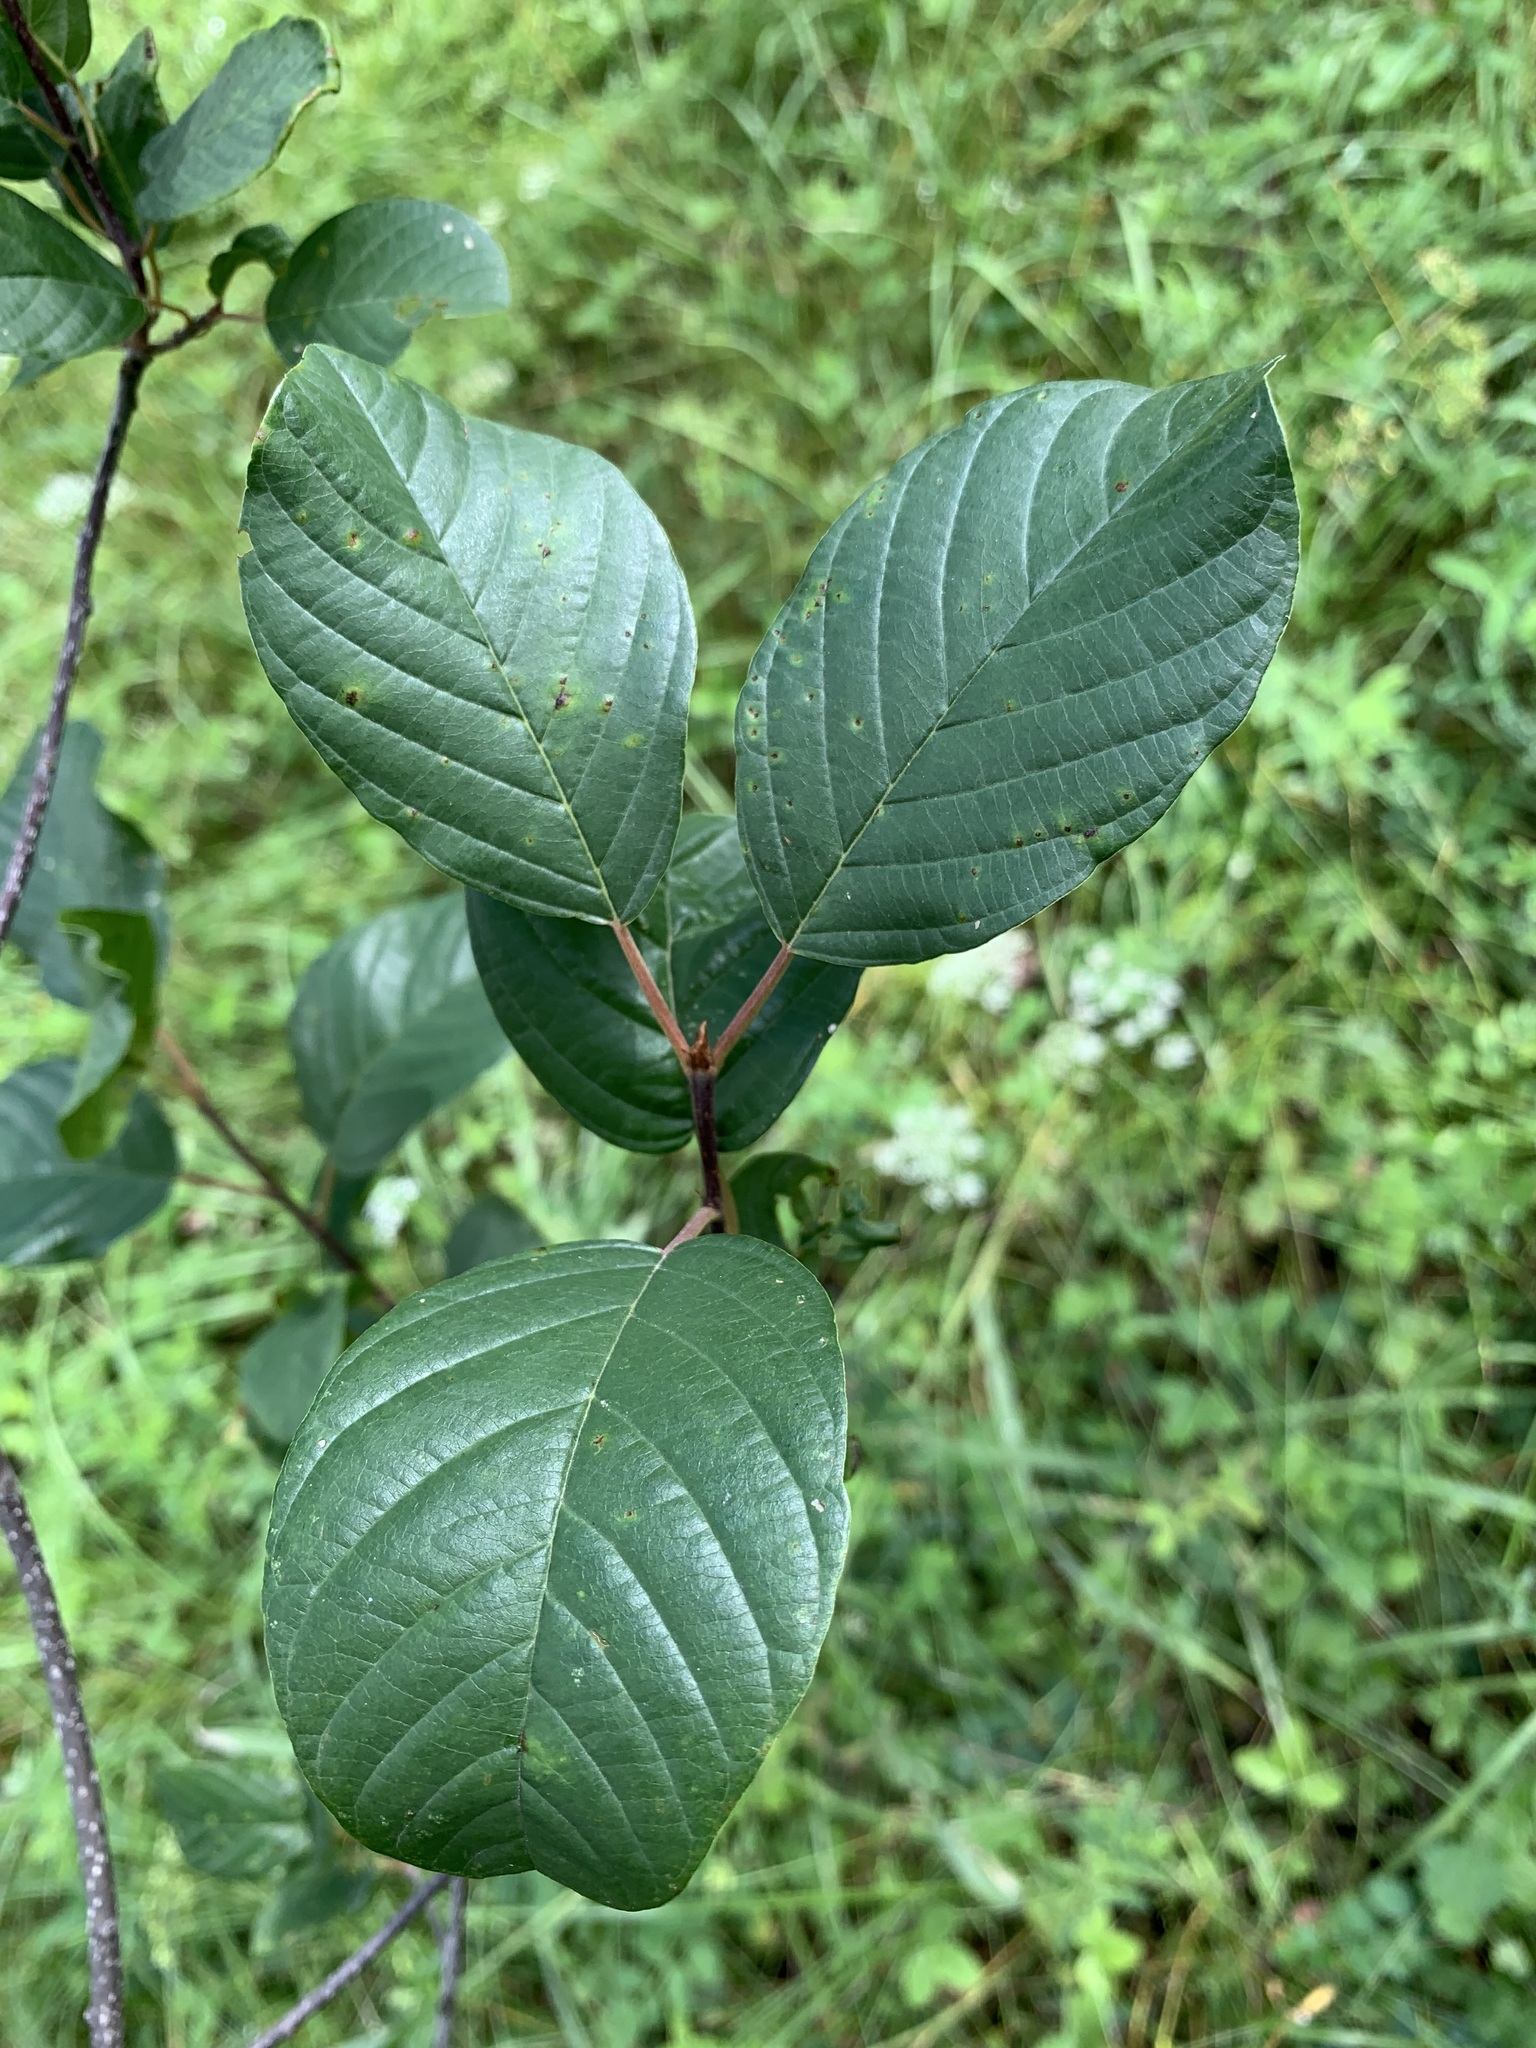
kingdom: Plantae
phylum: Tracheophyta
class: Magnoliopsida
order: Rosales
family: Rhamnaceae
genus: Frangula
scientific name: Frangula alnus
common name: Alder buckthorn
